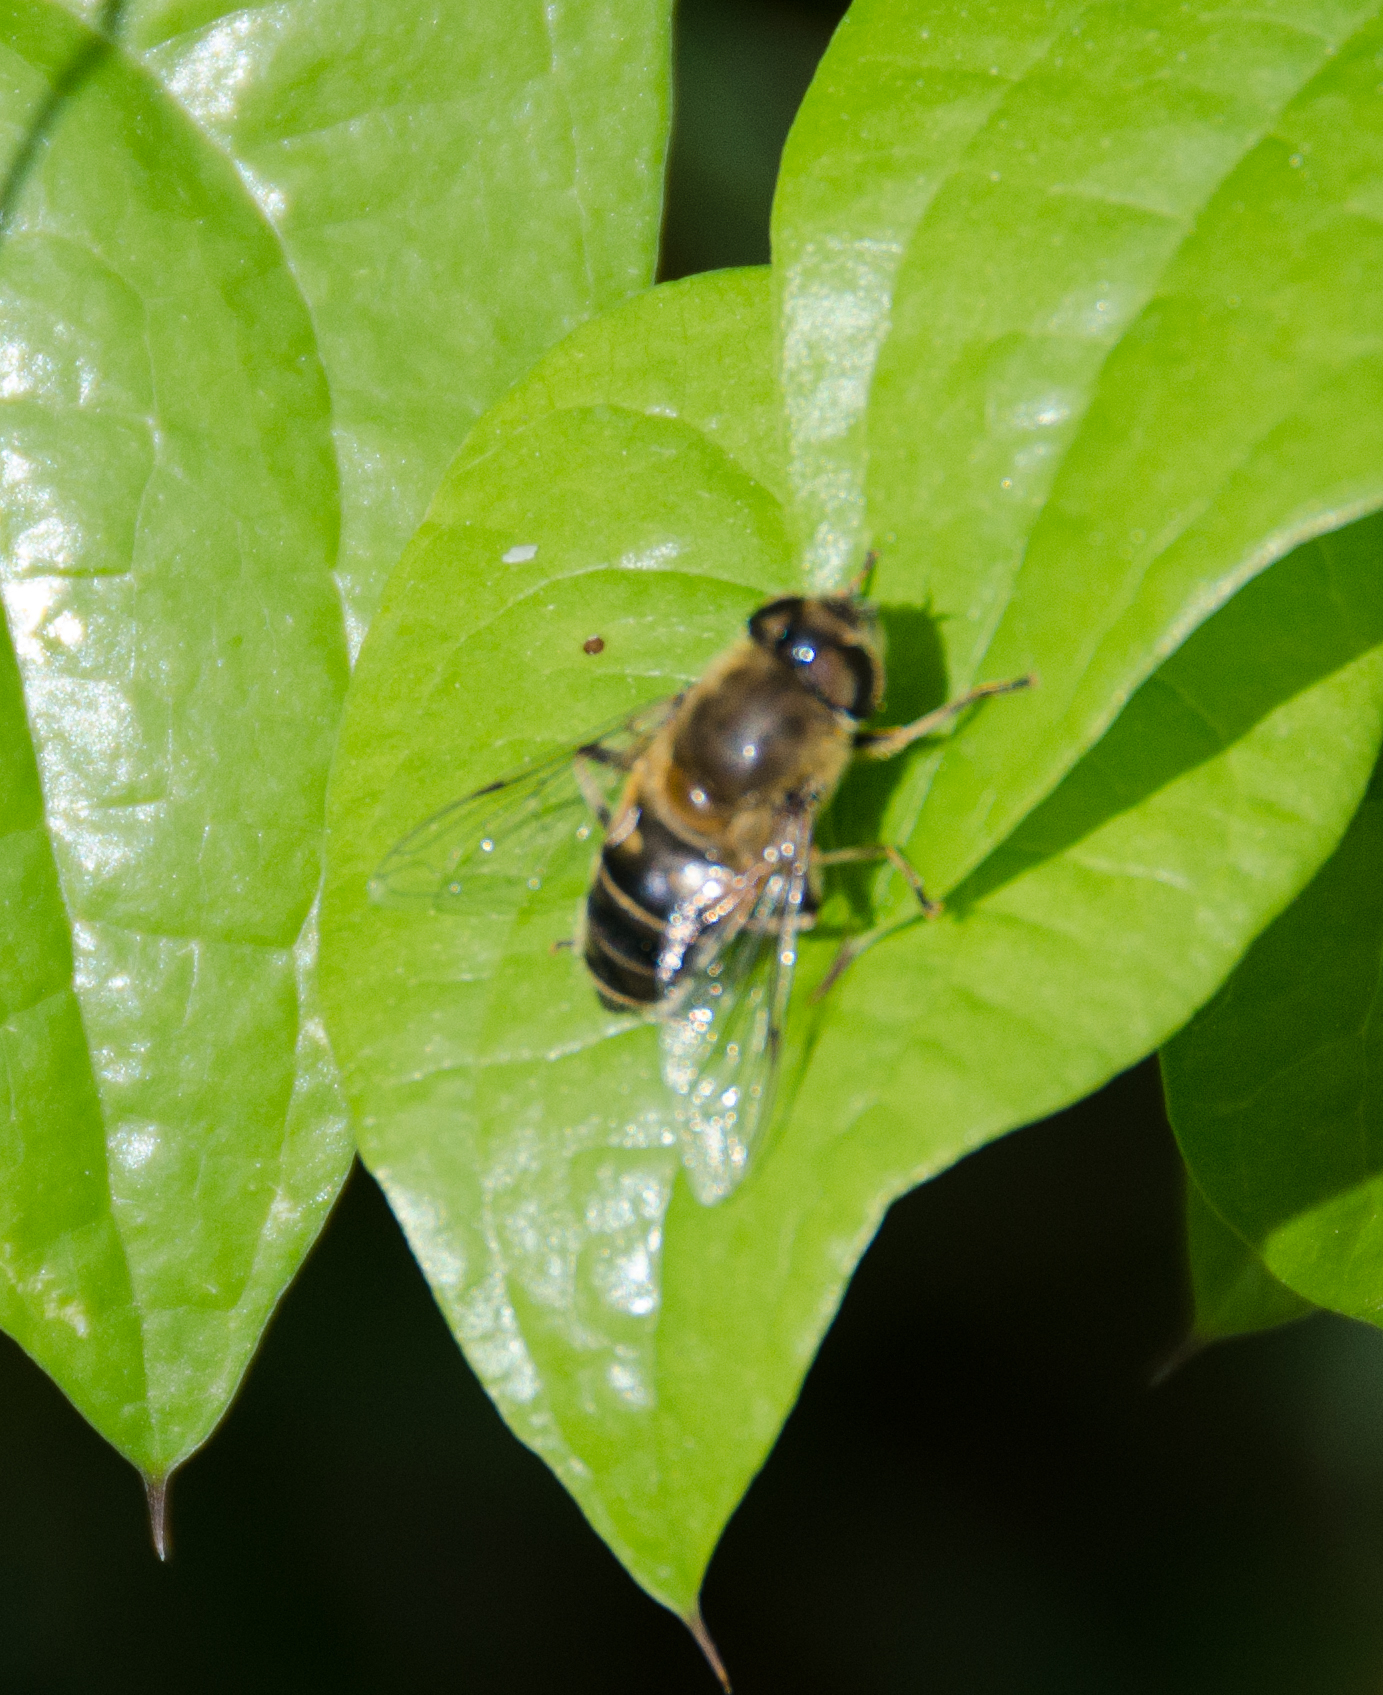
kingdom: Animalia
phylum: Arthropoda
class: Insecta
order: Diptera
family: Syrphidae
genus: Eristalis
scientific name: Eristalis pertinax
